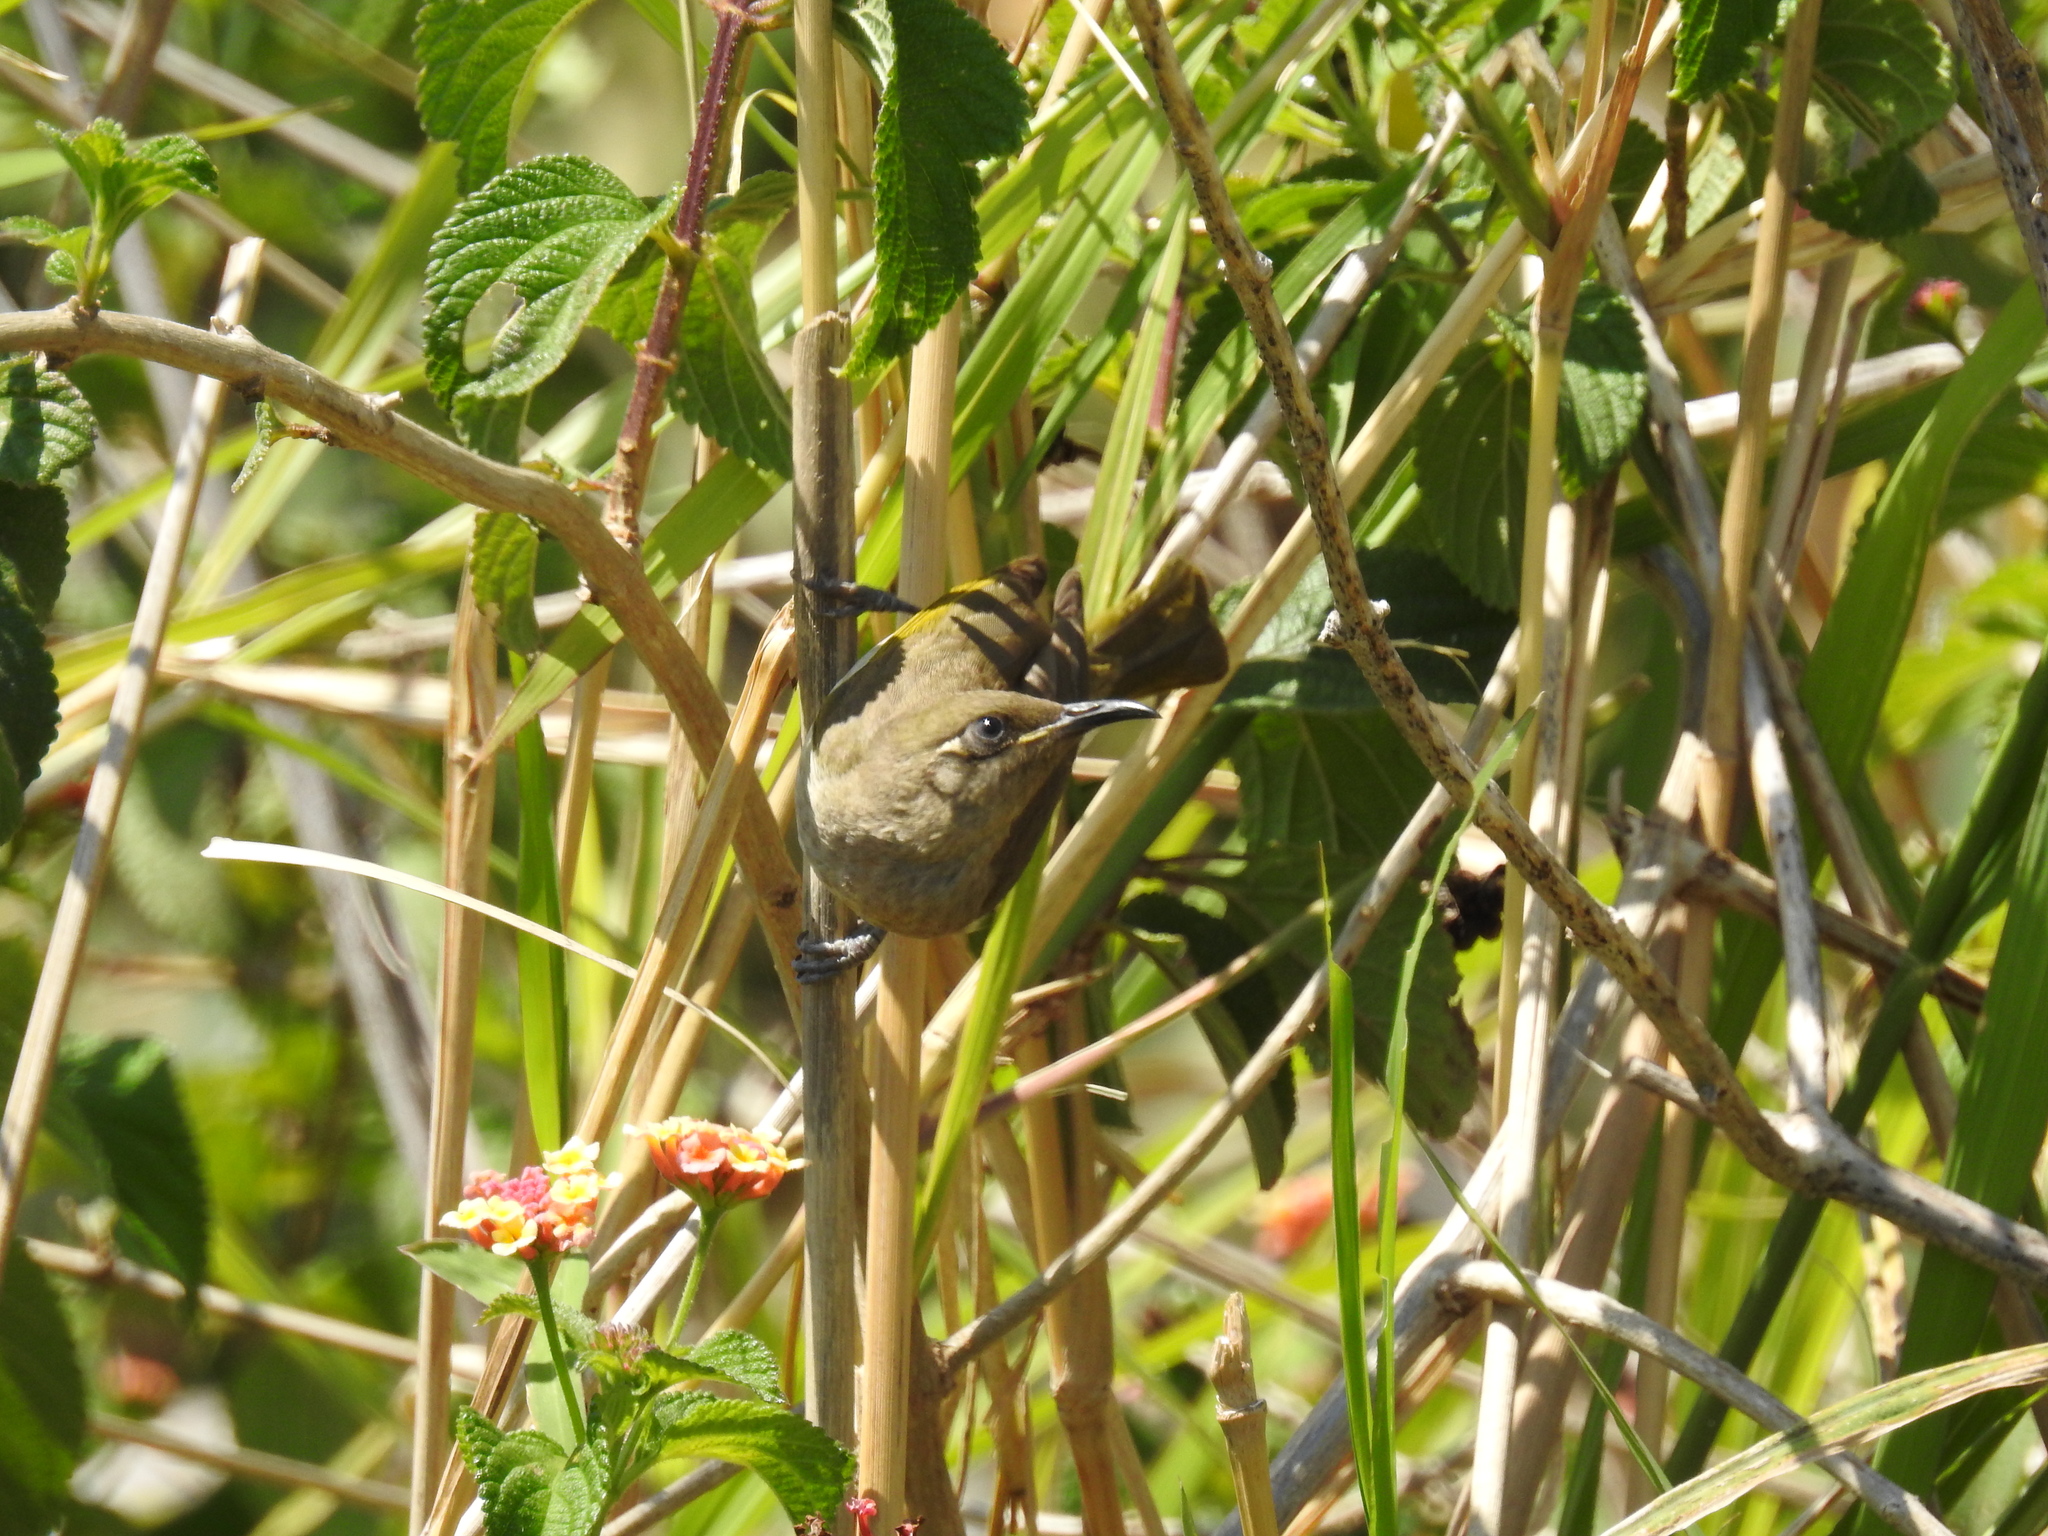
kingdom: Animalia
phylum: Chordata
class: Aves
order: Passeriformes
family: Meliphagidae
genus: Lichmera
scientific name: Lichmera indistincta
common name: Brown honeyeater
